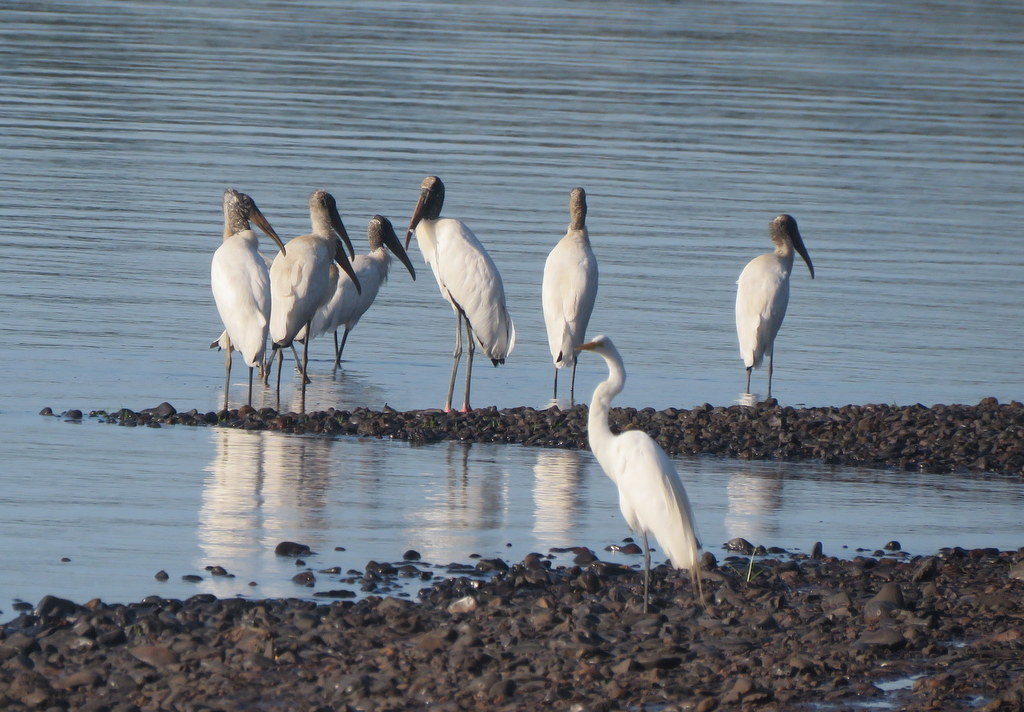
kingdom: Animalia
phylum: Chordata
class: Aves
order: Ciconiiformes
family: Ciconiidae
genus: Mycteria
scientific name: Mycteria americana
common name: Wood stork
